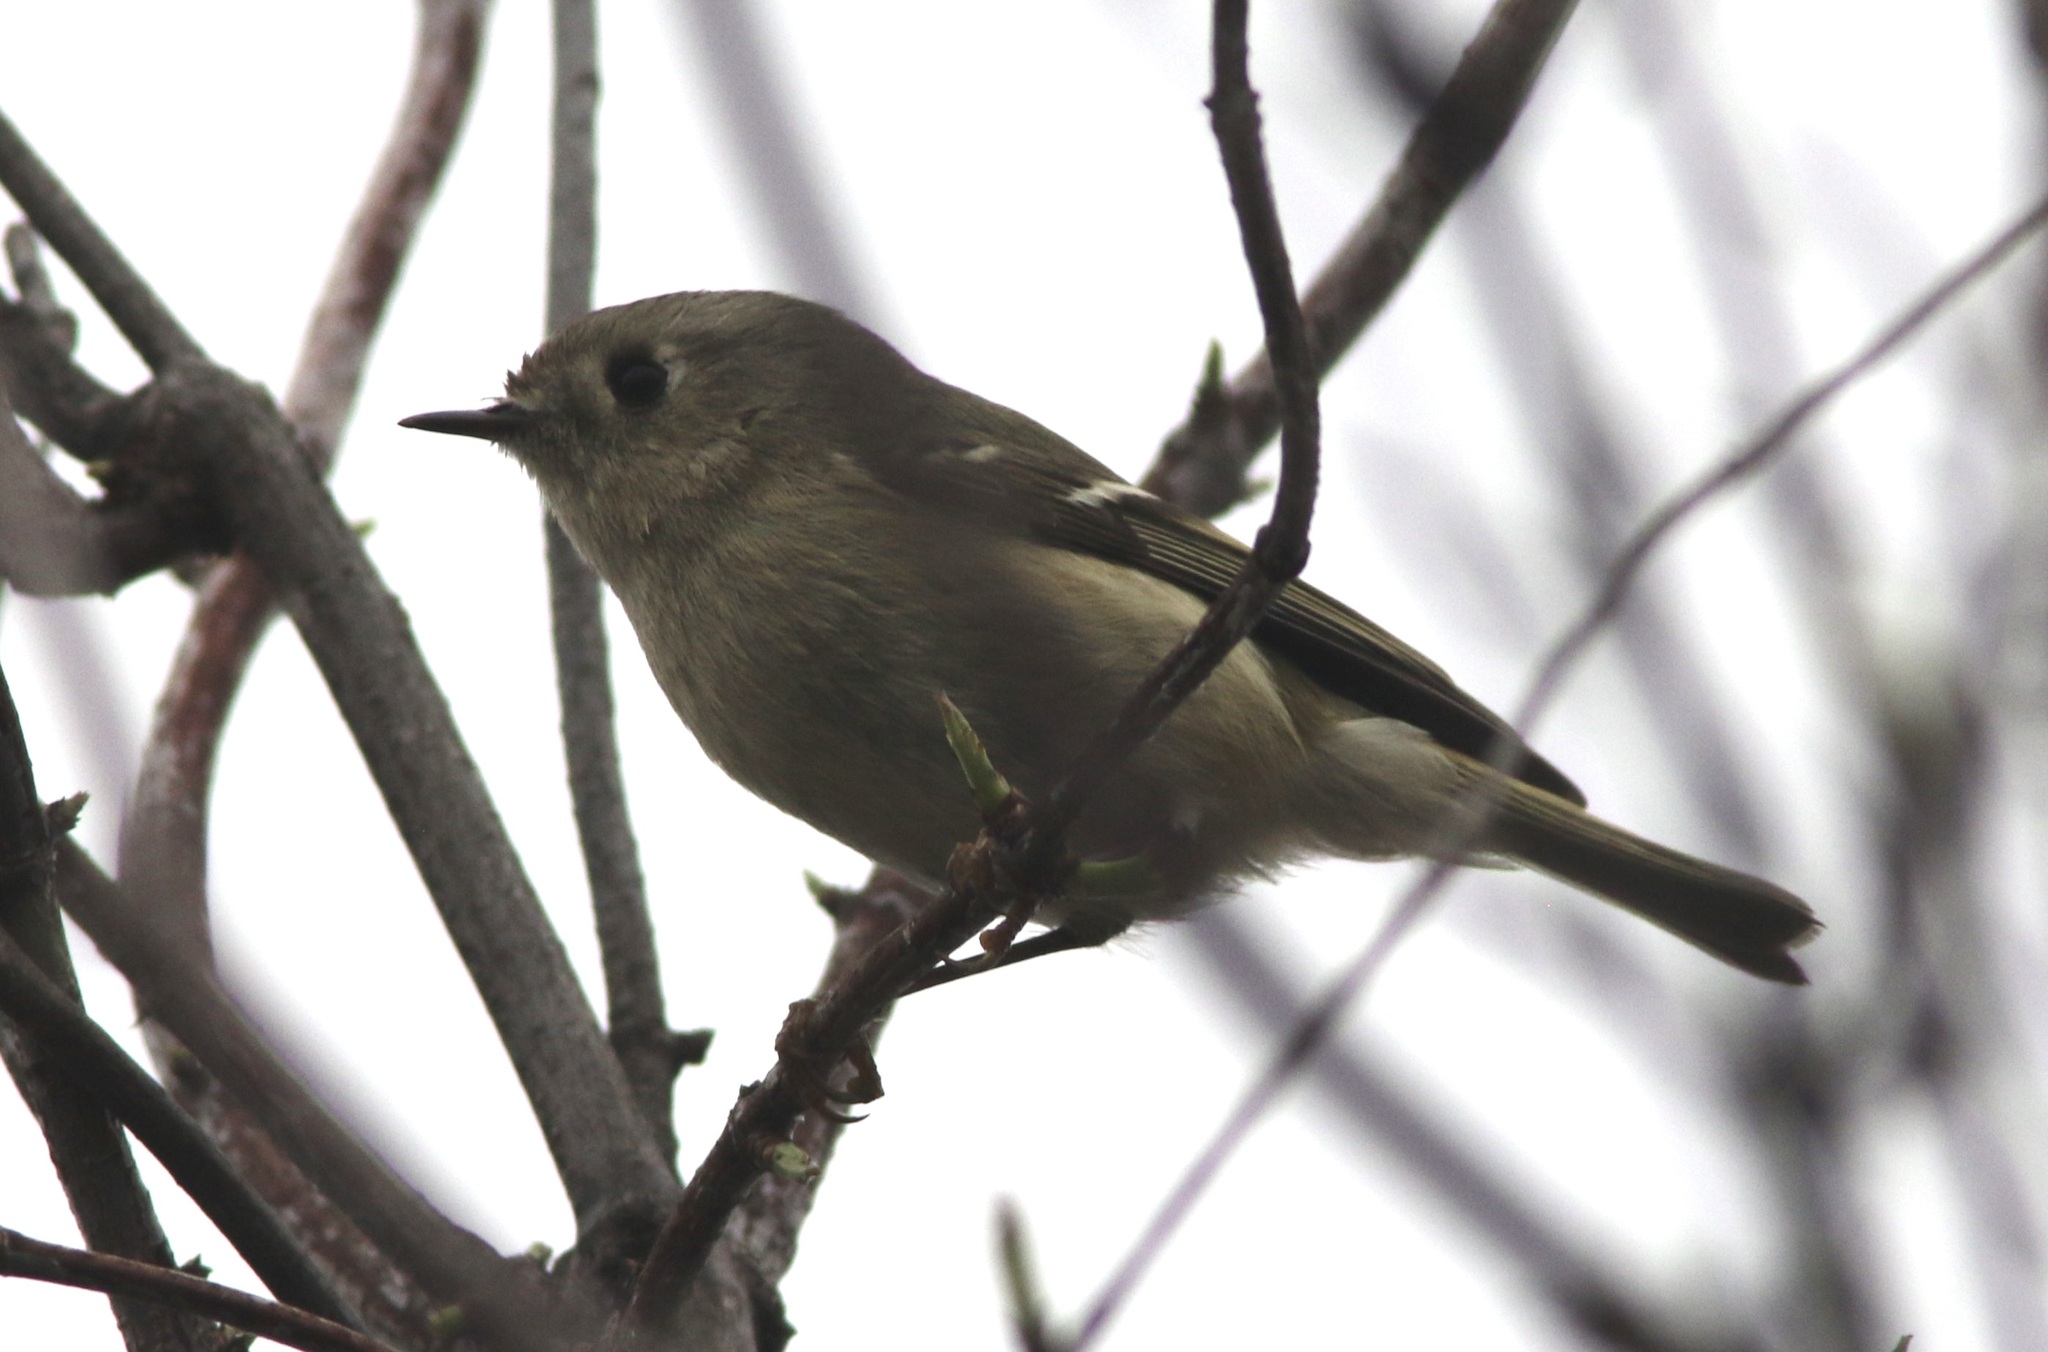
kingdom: Animalia
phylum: Chordata
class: Aves
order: Passeriformes
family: Regulidae
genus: Regulus
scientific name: Regulus calendula
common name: Ruby-crowned kinglet
